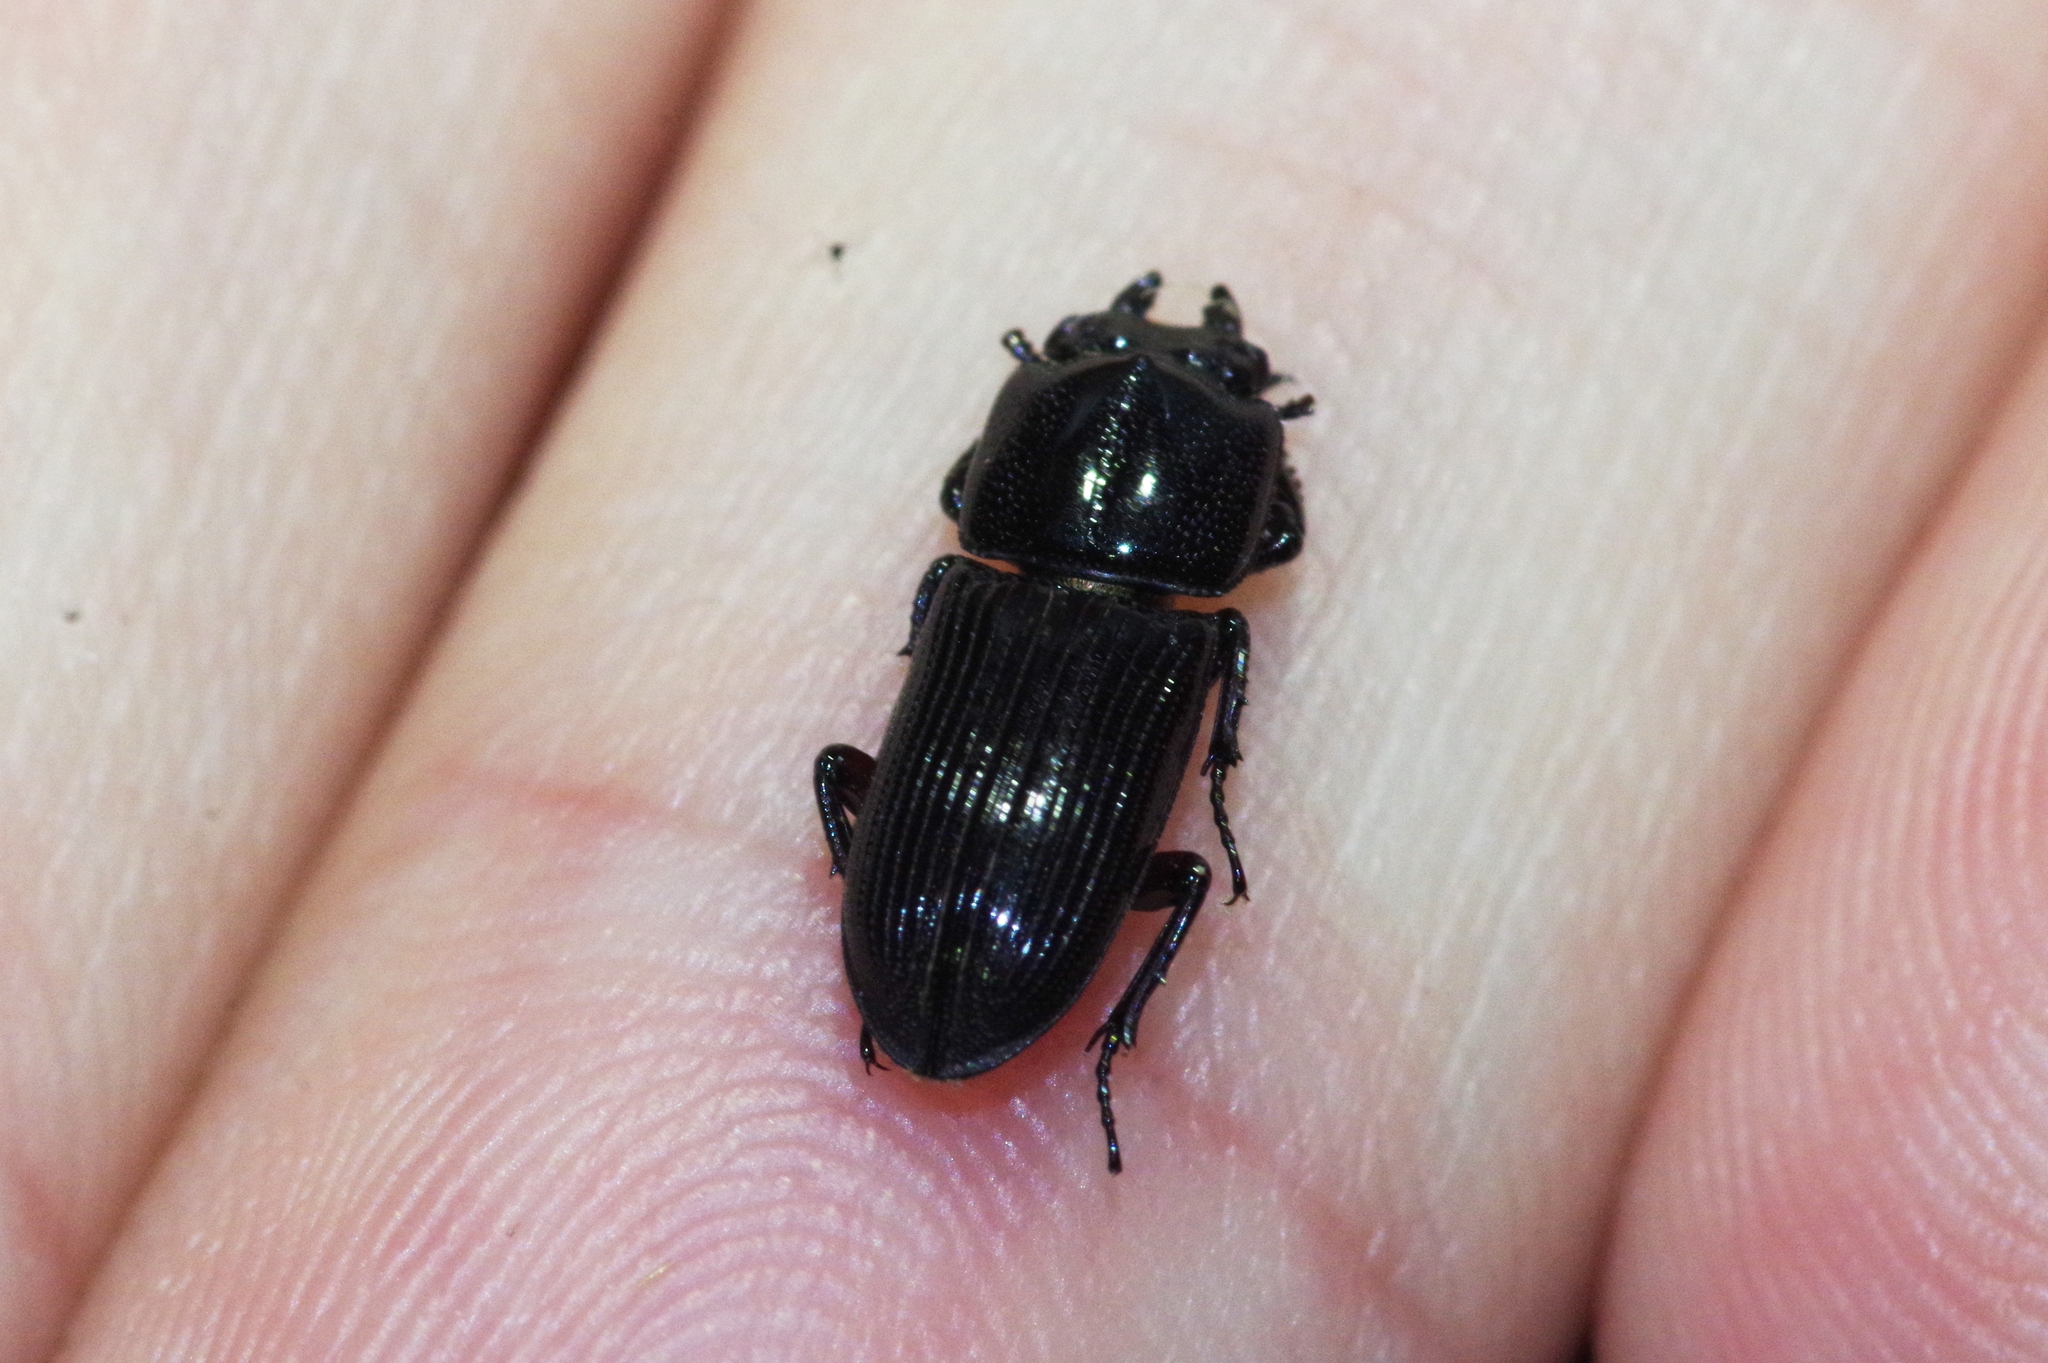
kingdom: Animalia
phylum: Arthropoda
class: Insecta
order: Coleoptera
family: Lucanidae
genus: Figulus
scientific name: Figulus punctatus
